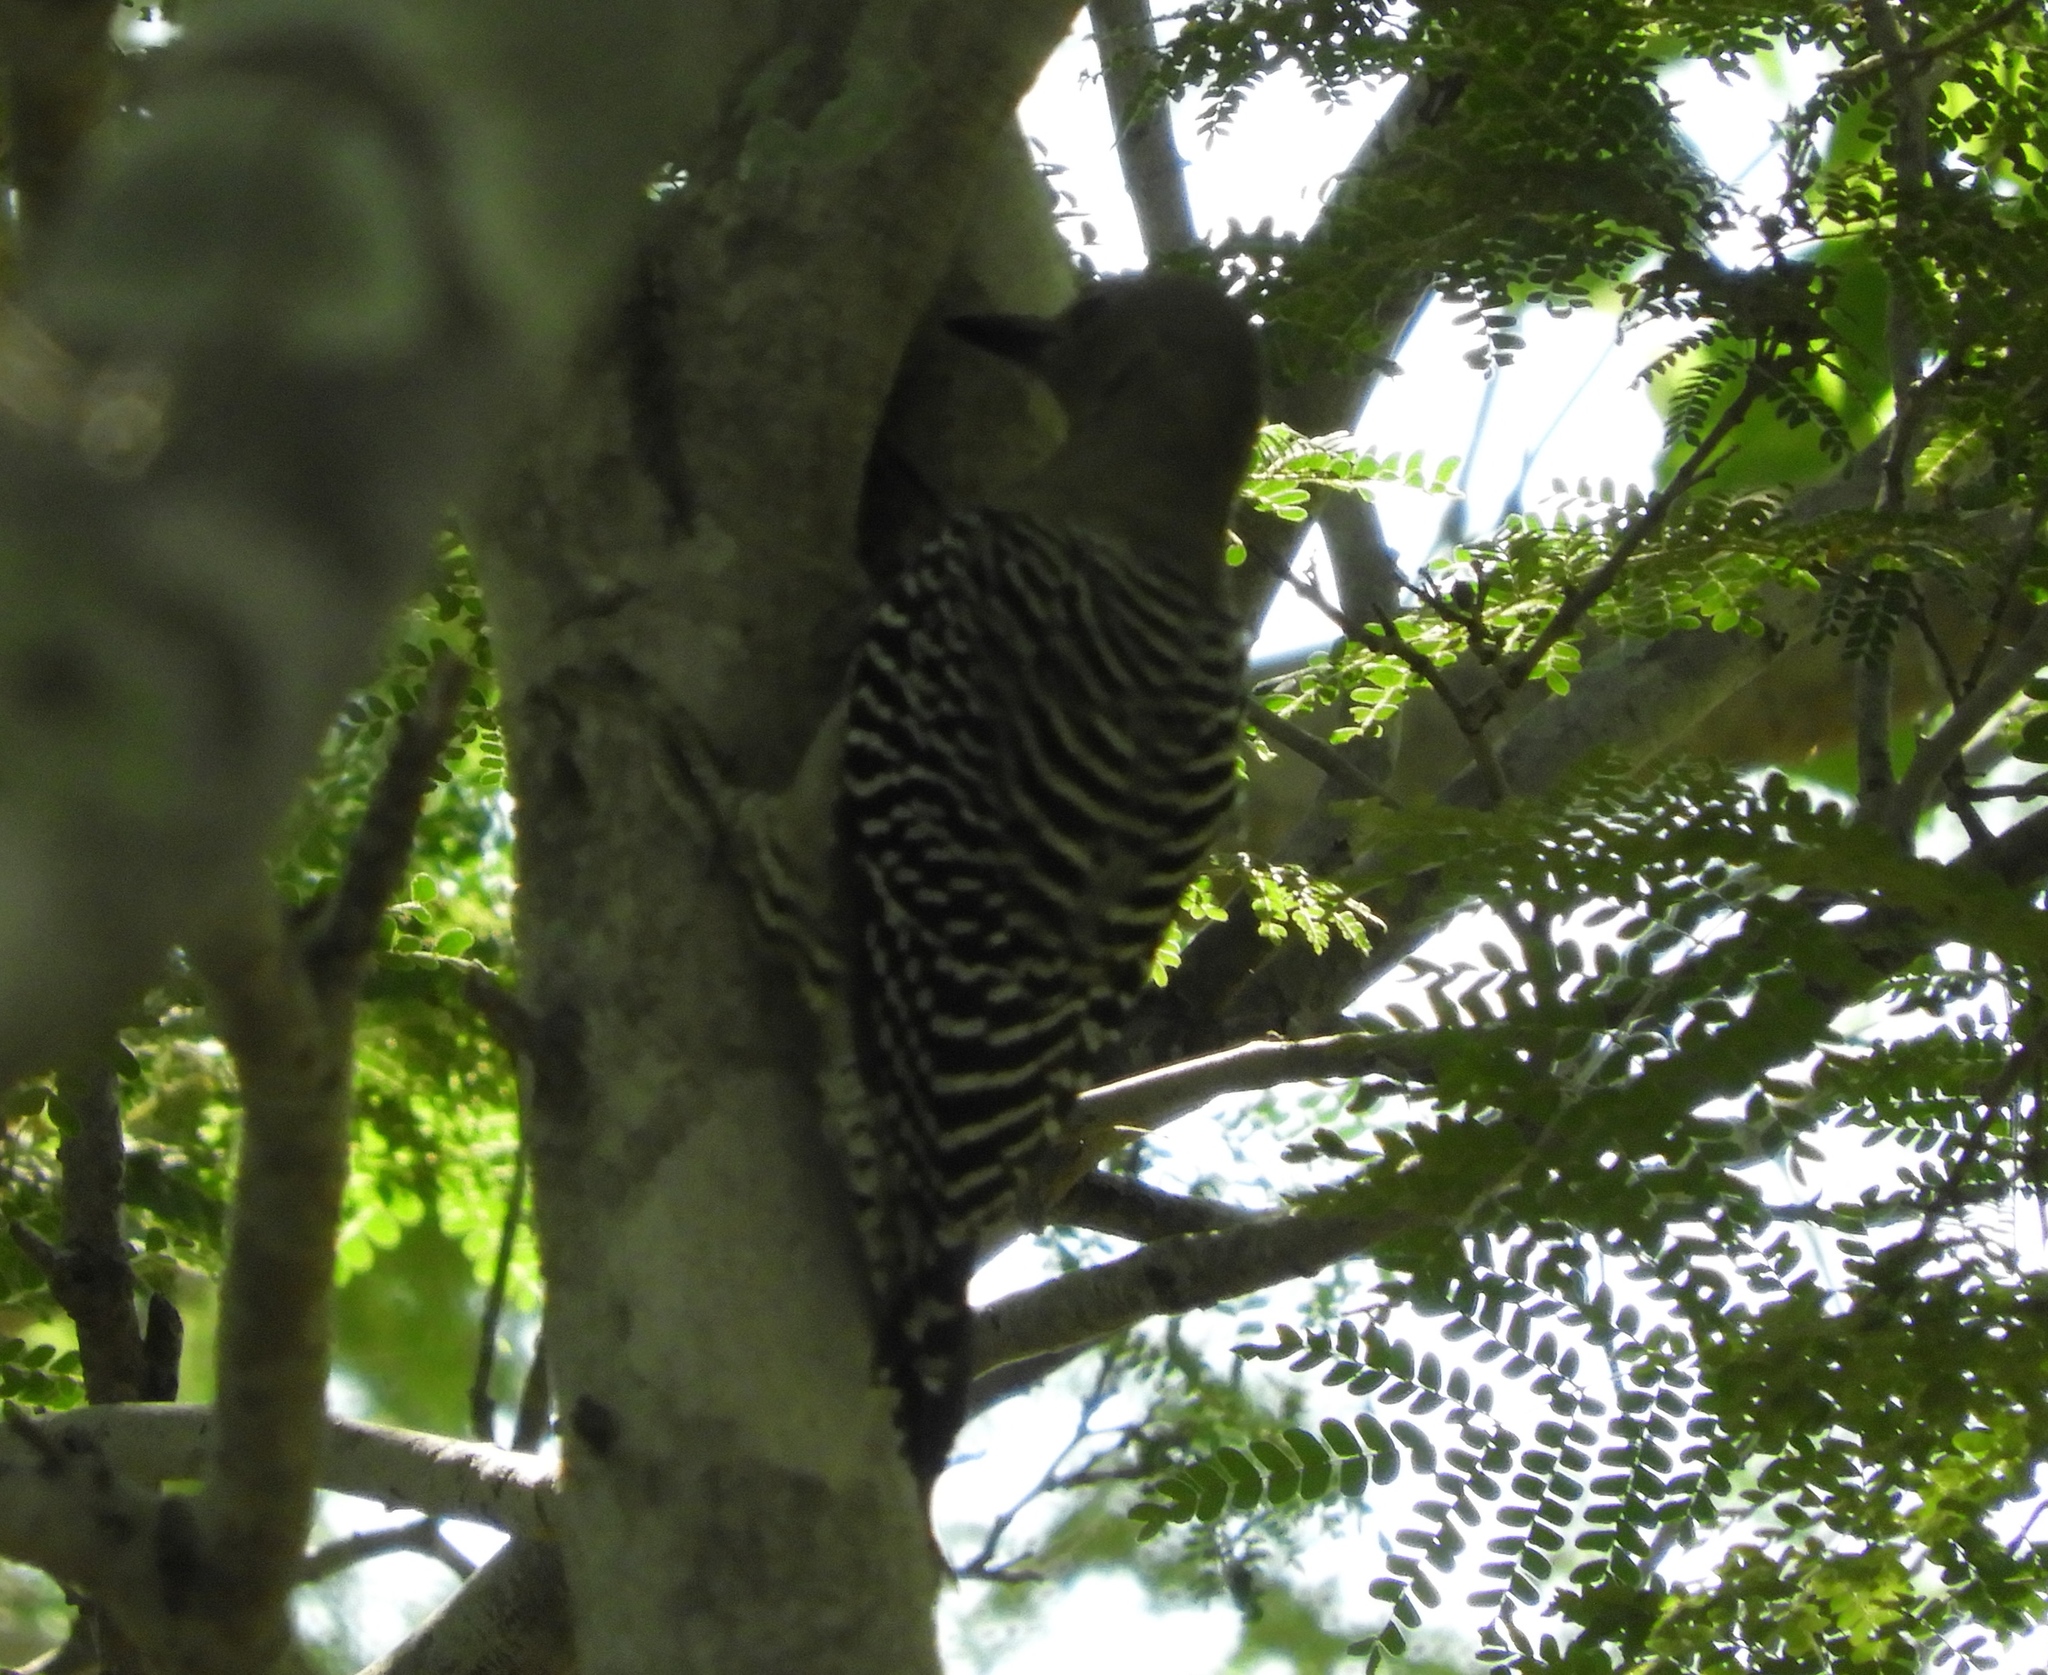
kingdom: Animalia
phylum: Chordata
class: Aves
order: Piciformes
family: Picidae
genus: Melanerpes
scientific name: Melanerpes uropygialis
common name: Gila woodpecker
